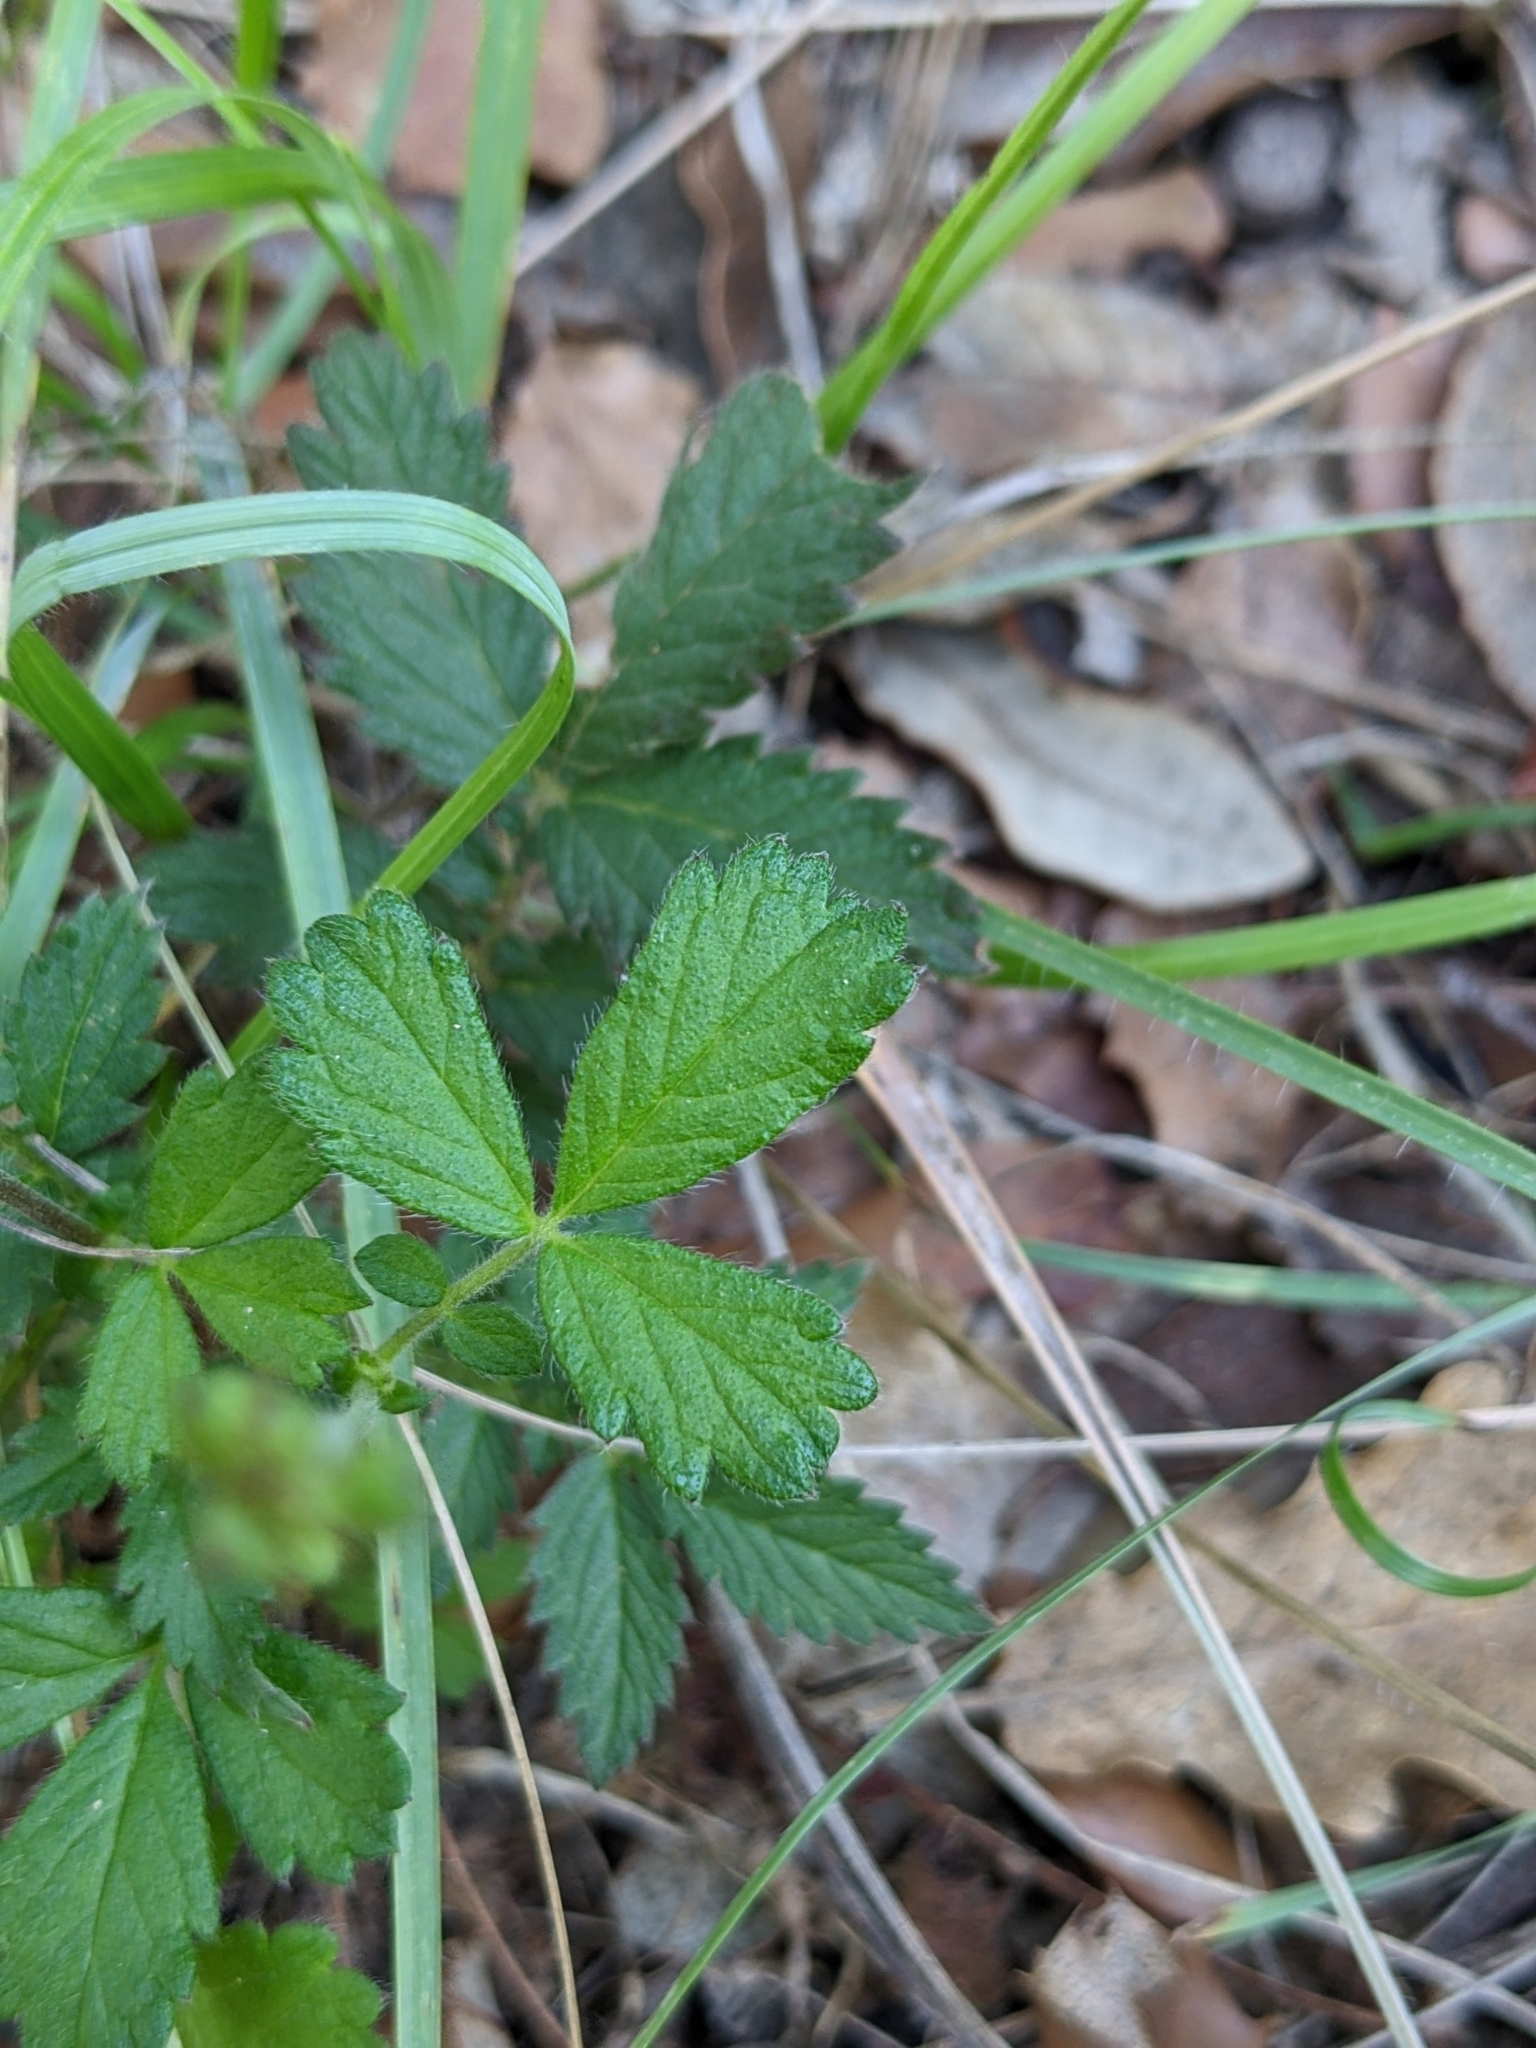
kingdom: Plantae
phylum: Tracheophyta
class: Magnoliopsida
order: Rosales
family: Rosaceae
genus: Agrimonia
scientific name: Agrimonia eupatoria
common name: Agrimony
